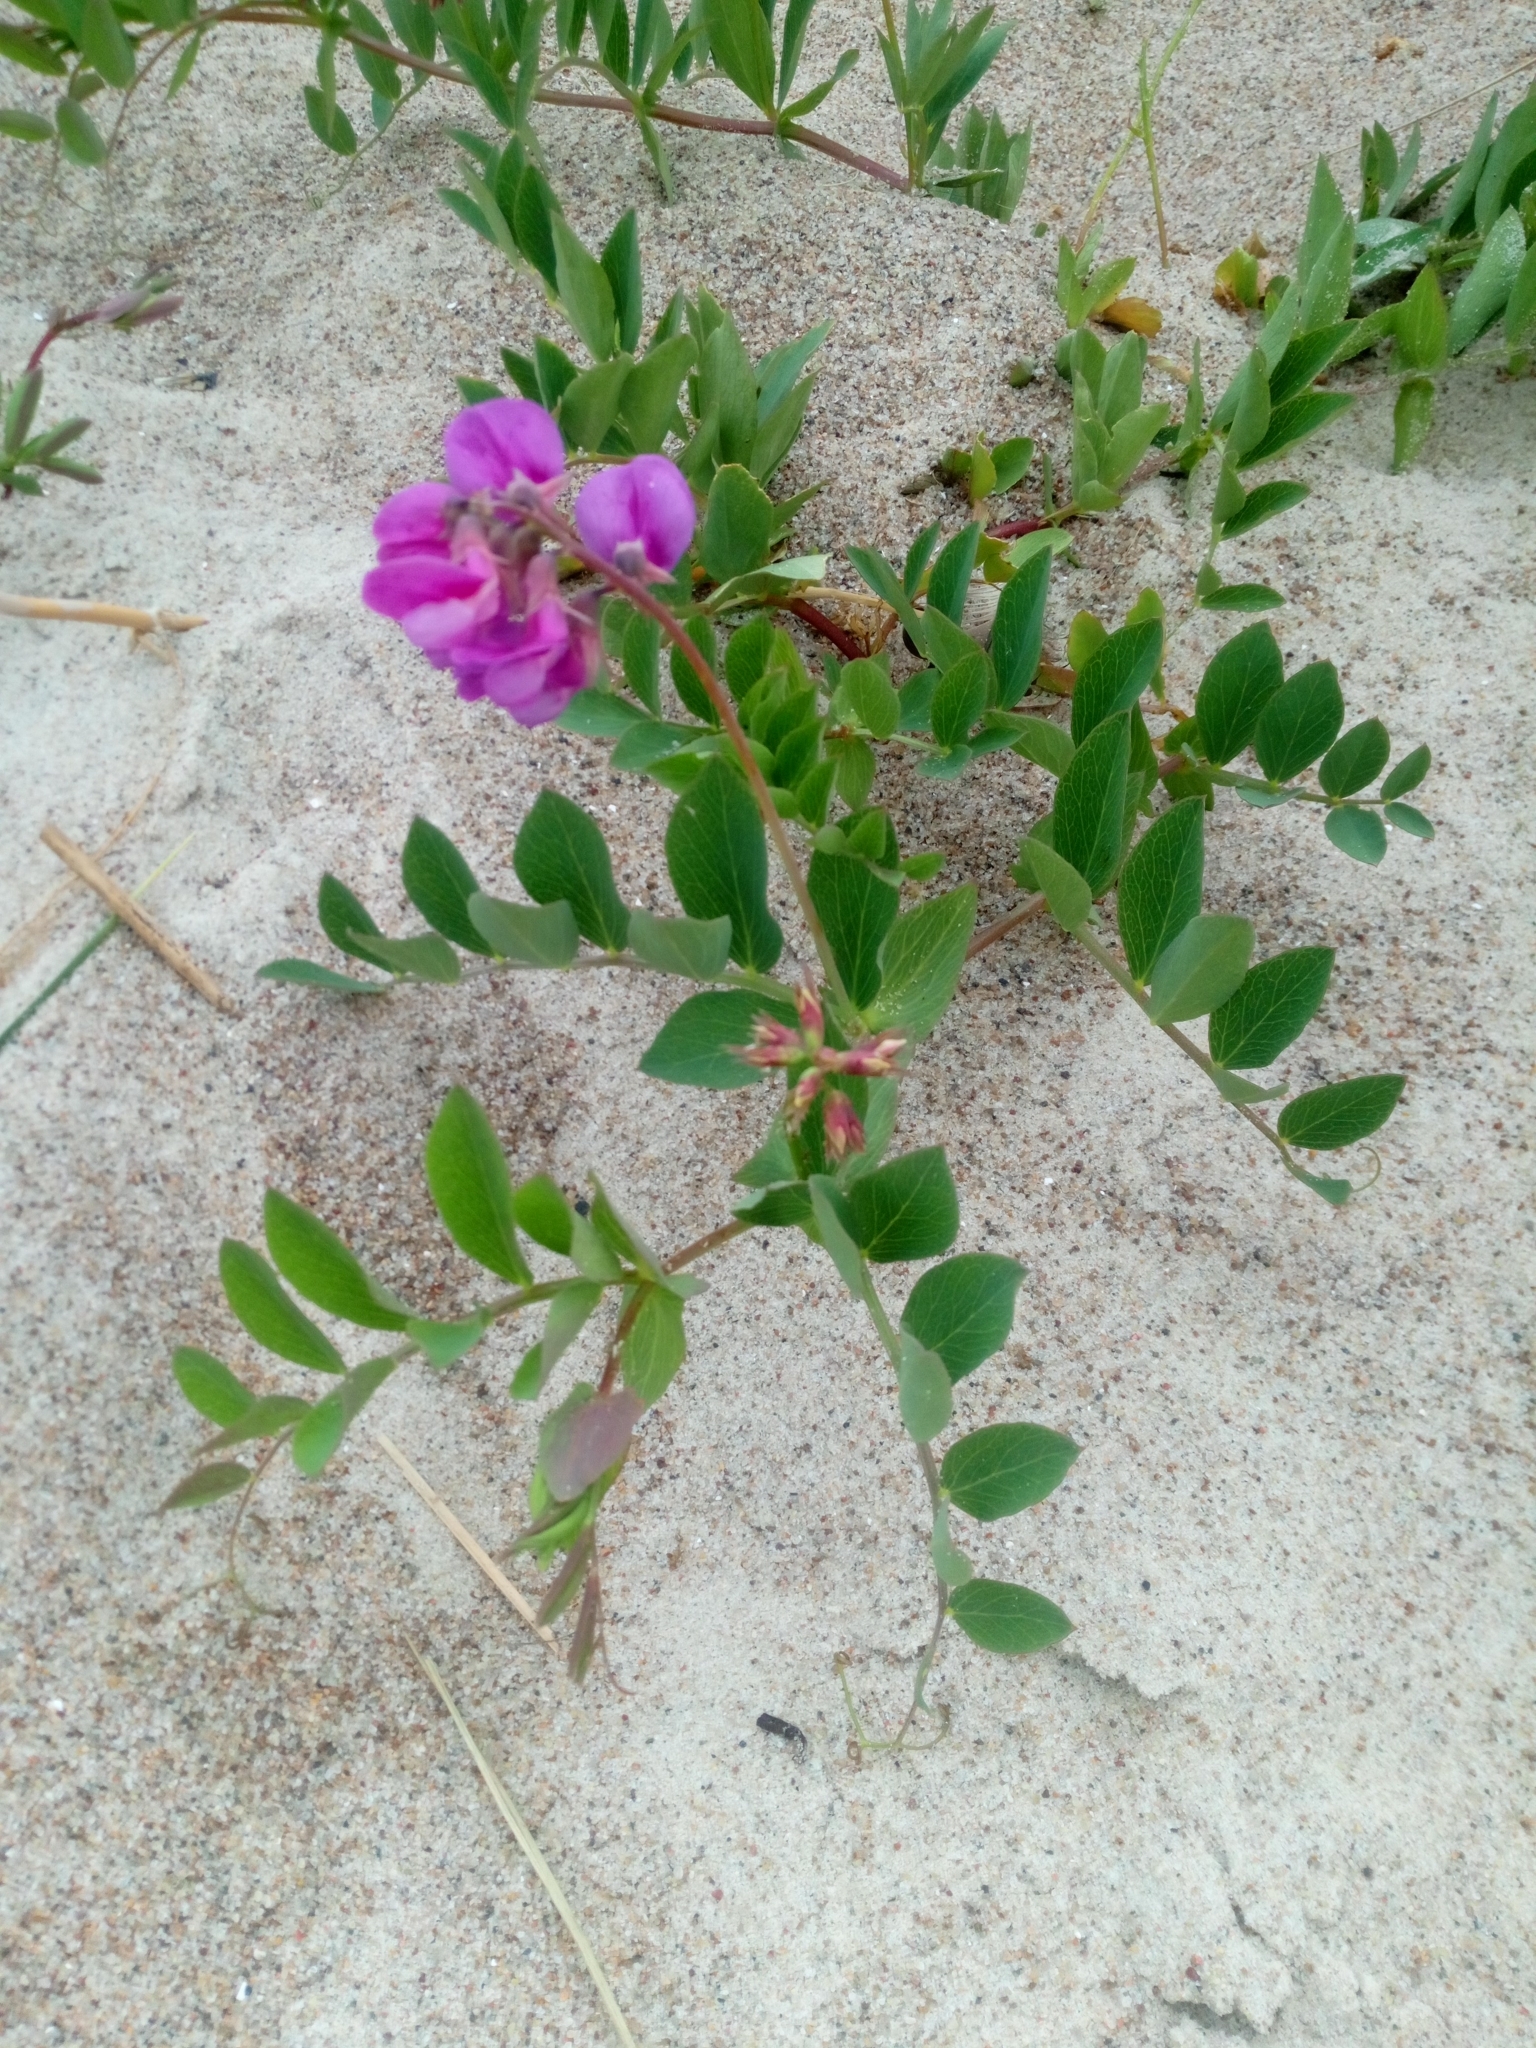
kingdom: Plantae
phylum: Tracheophyta
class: Magnoliopsida
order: Fabales
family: Fabaceae
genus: Lathyrus
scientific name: Lathyrus japonicus
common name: Sea pea
